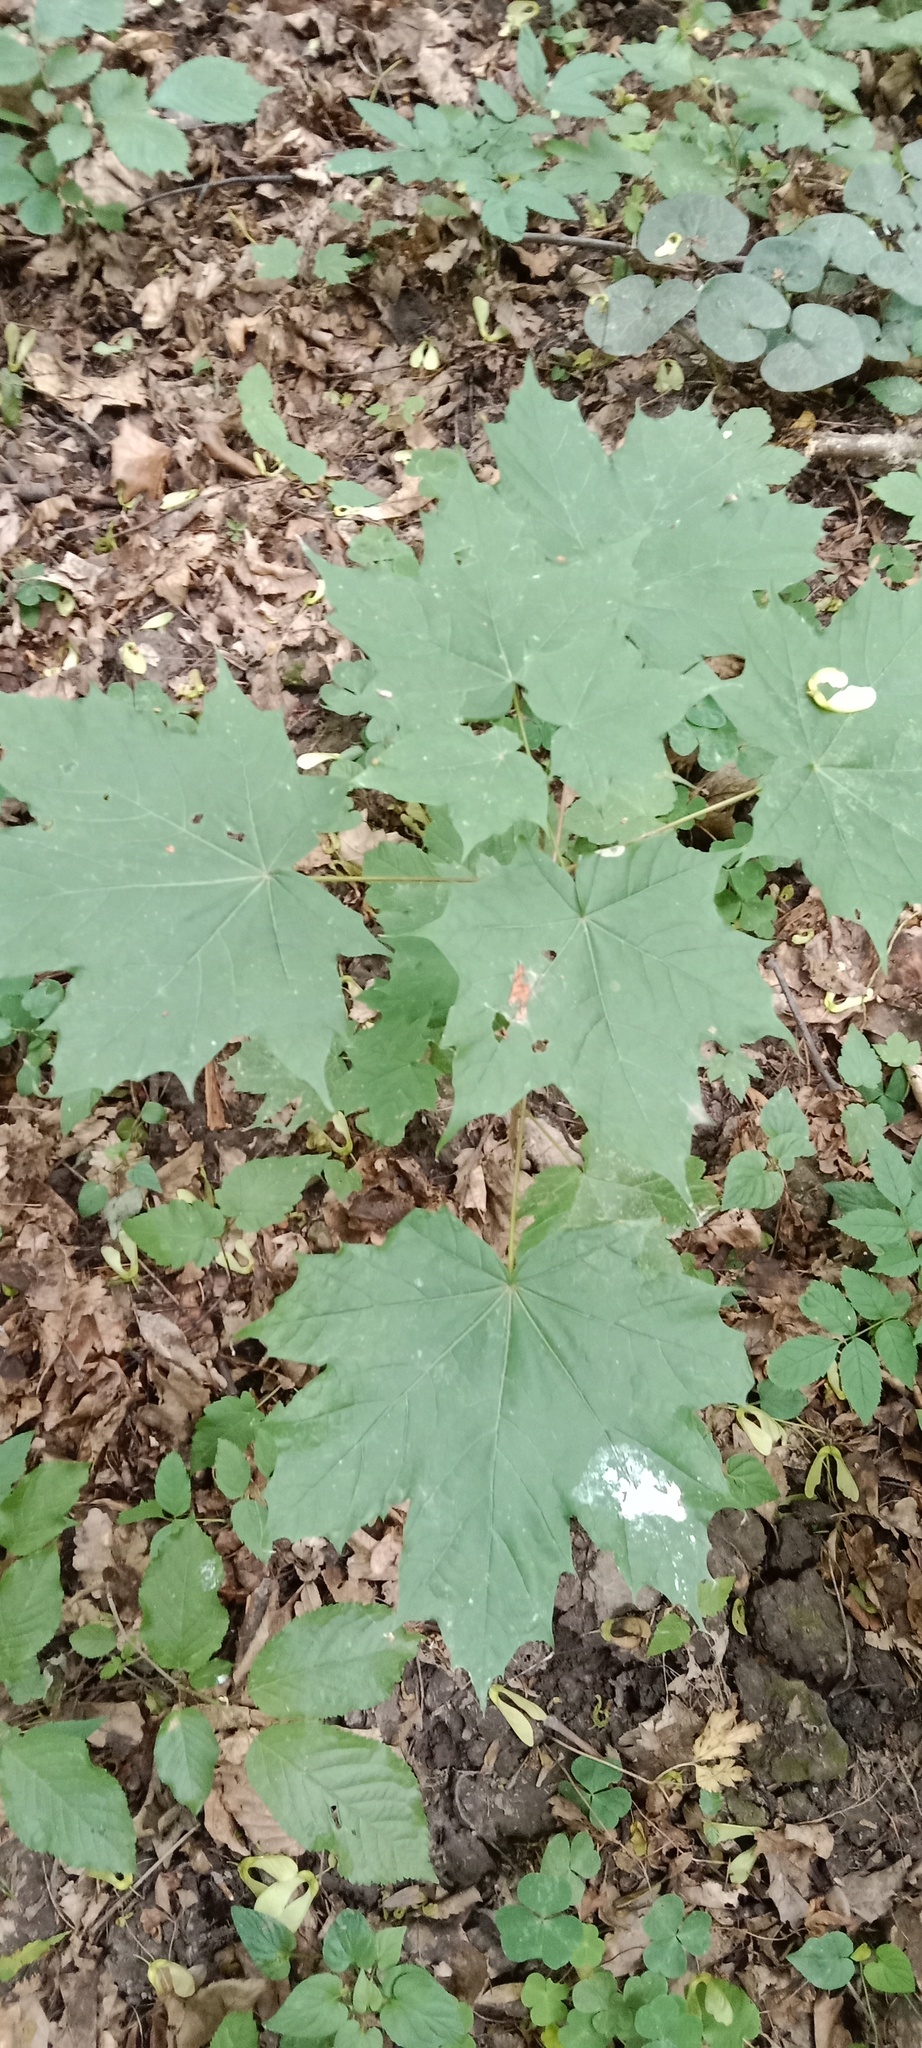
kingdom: Plantae
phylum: Tracheophyta
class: Magnoliopsida
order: Sapindales
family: Sapindaceae
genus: Acer
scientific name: Acer platanoides
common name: Norway maple
